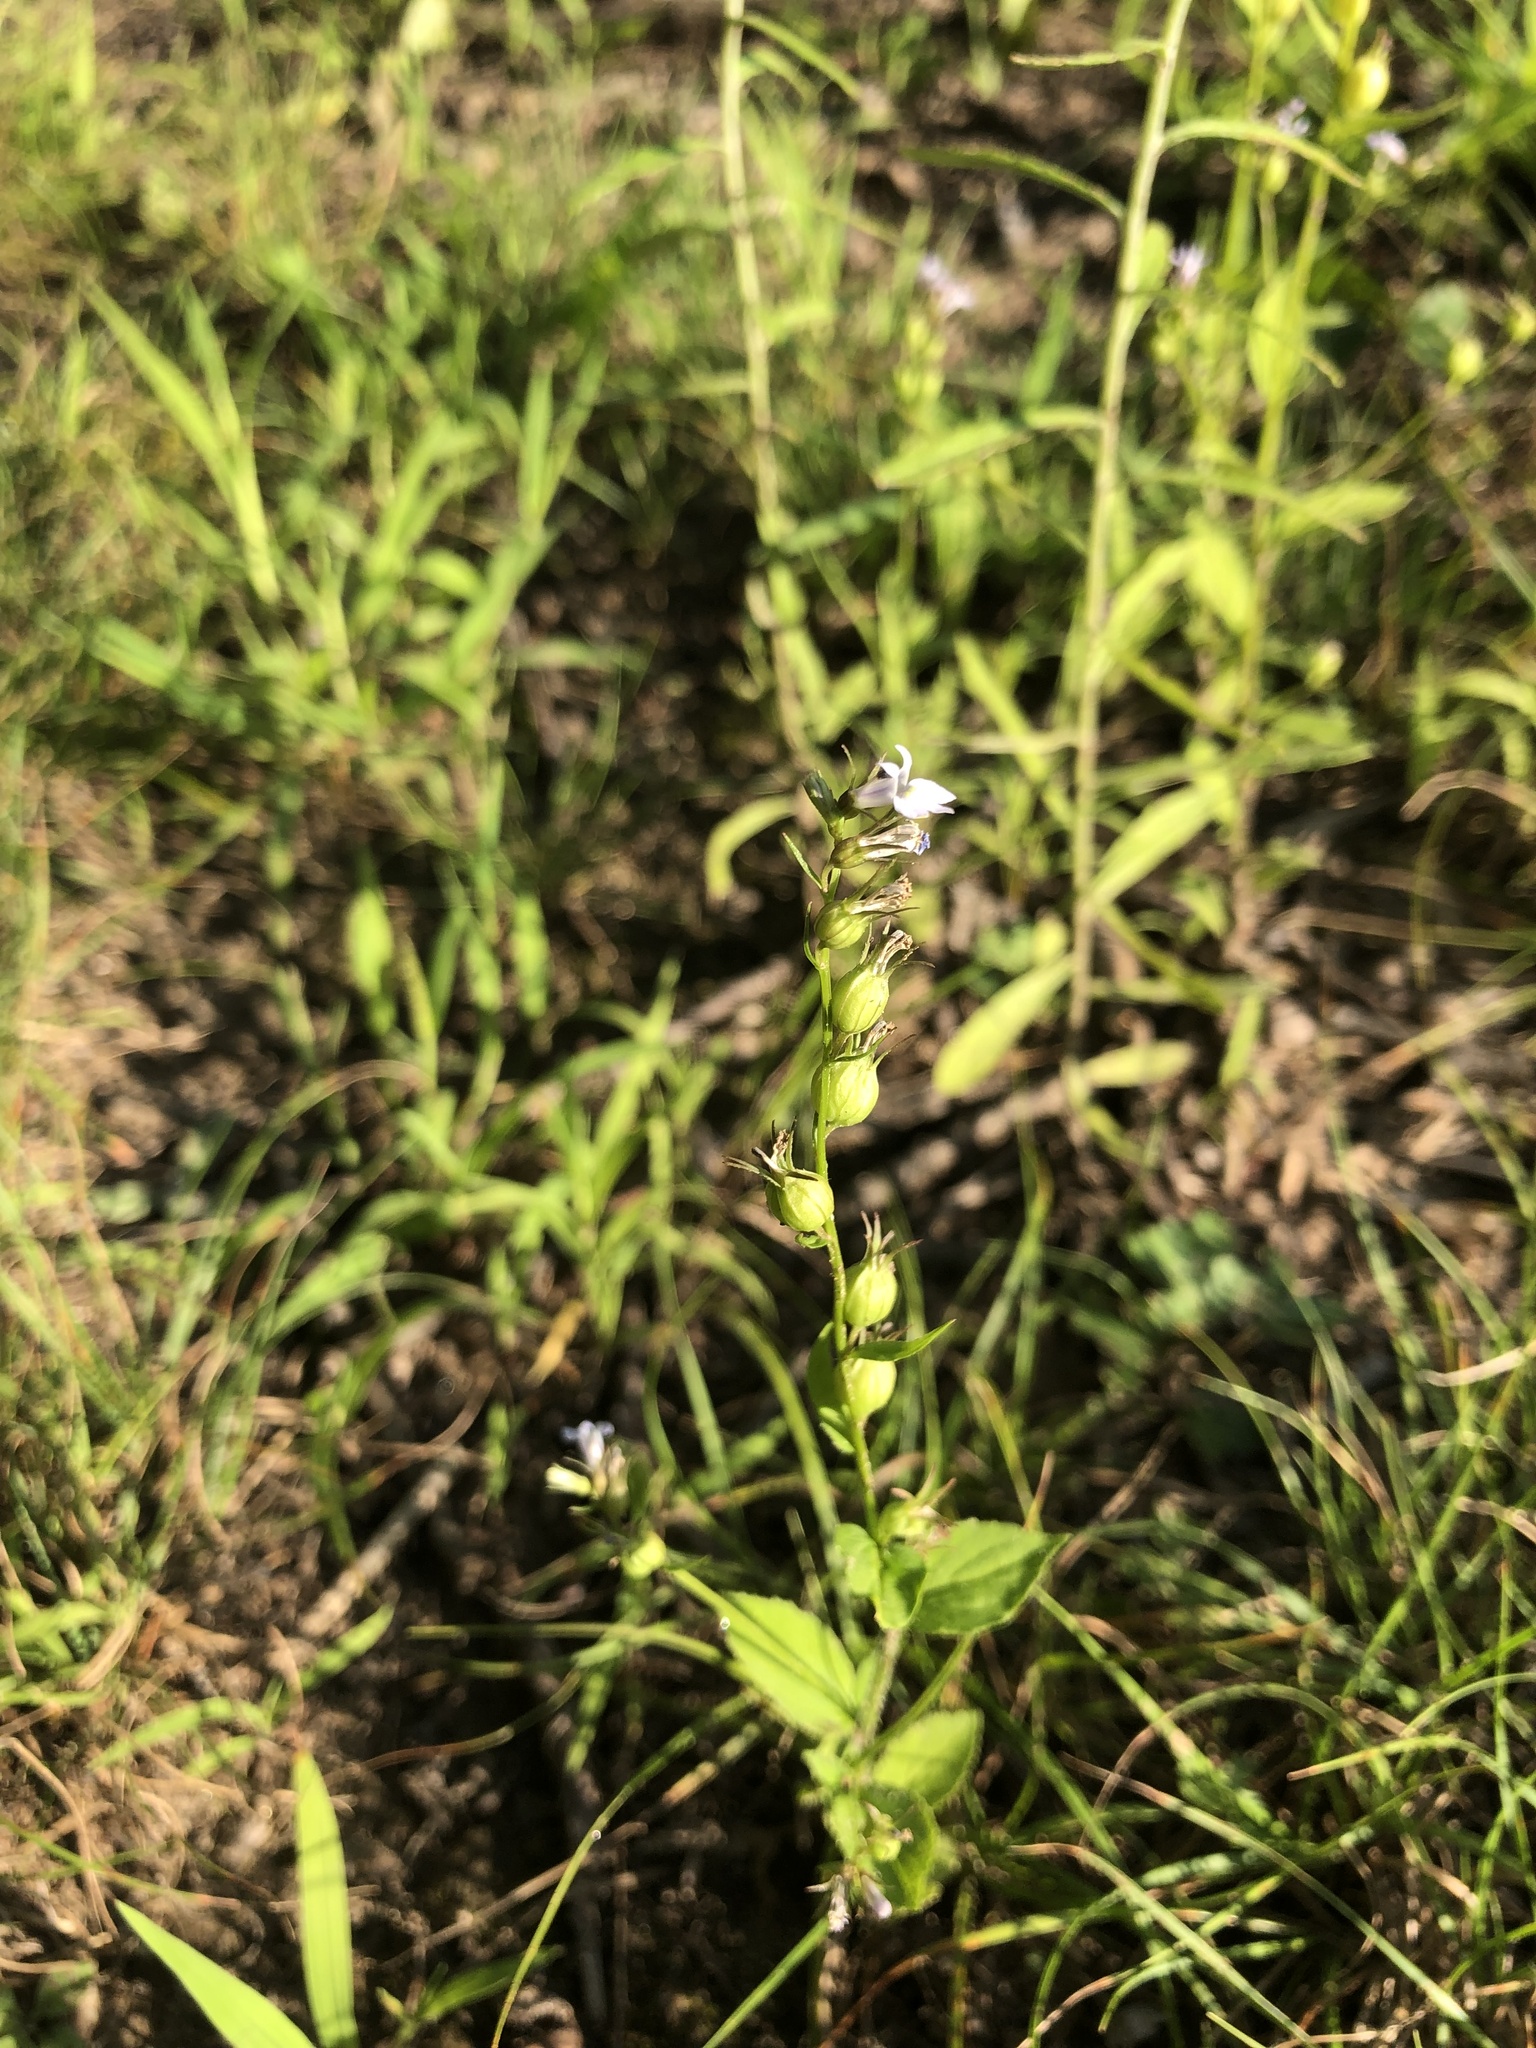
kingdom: Plantae
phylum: Tracheophyta
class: Magnoliopsida
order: Asterales
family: Campanulaceae
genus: Lobelia
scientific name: Lobelia inflata
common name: Indian tobacco
